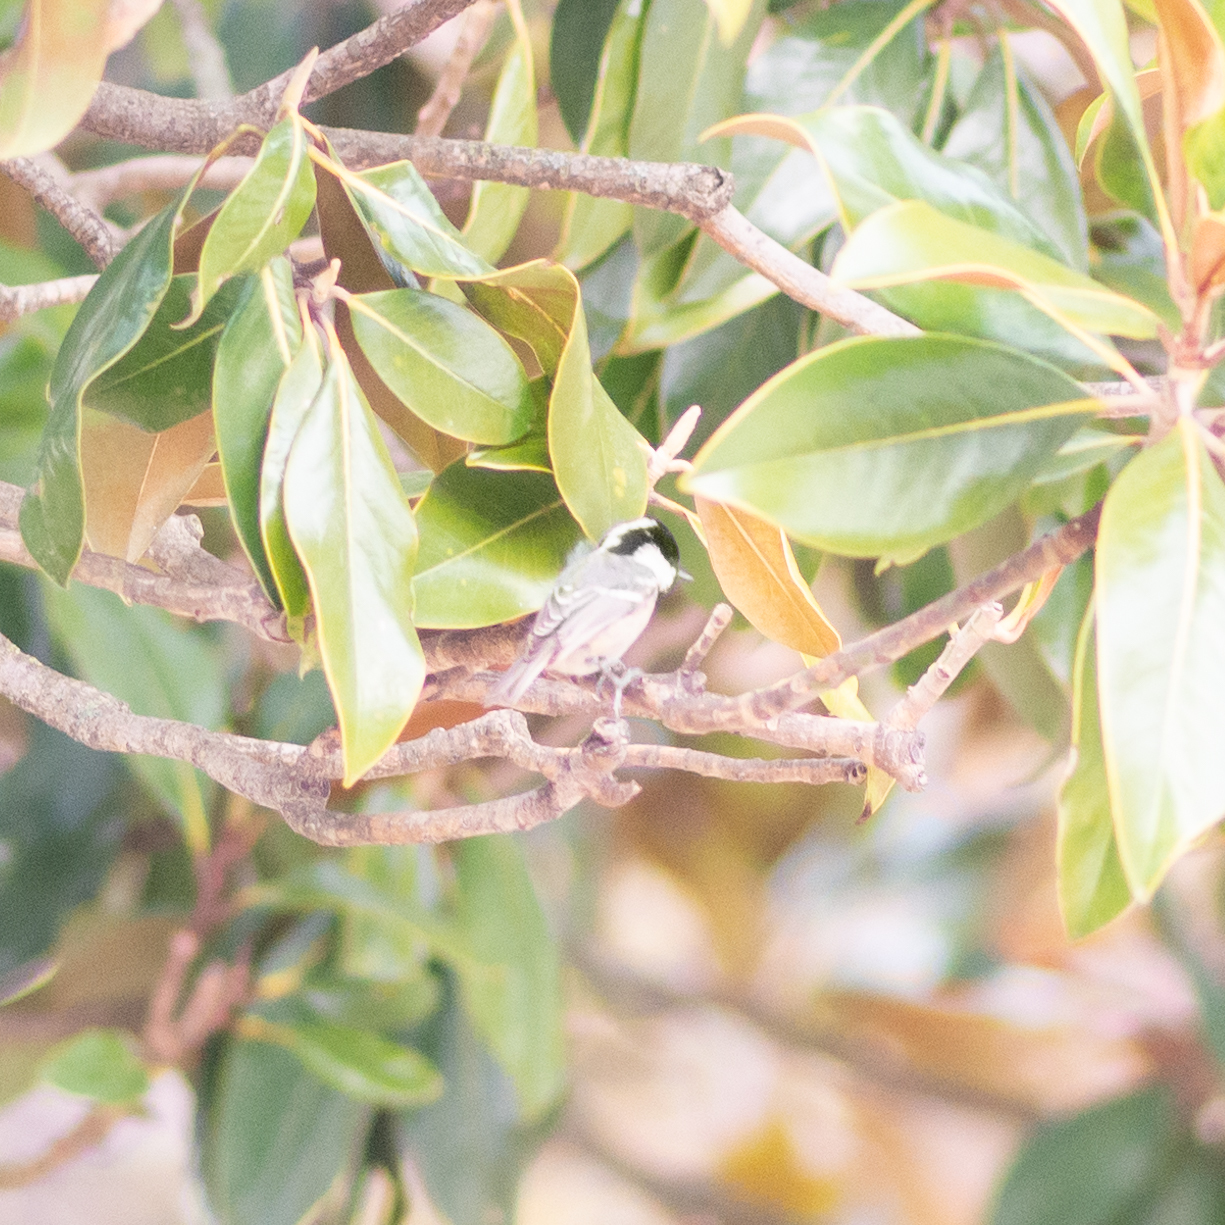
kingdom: Animalia
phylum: Chordata
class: Aves
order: Passeriformes
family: Paridae
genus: Periparus
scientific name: Periparus ater
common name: Coal tit
